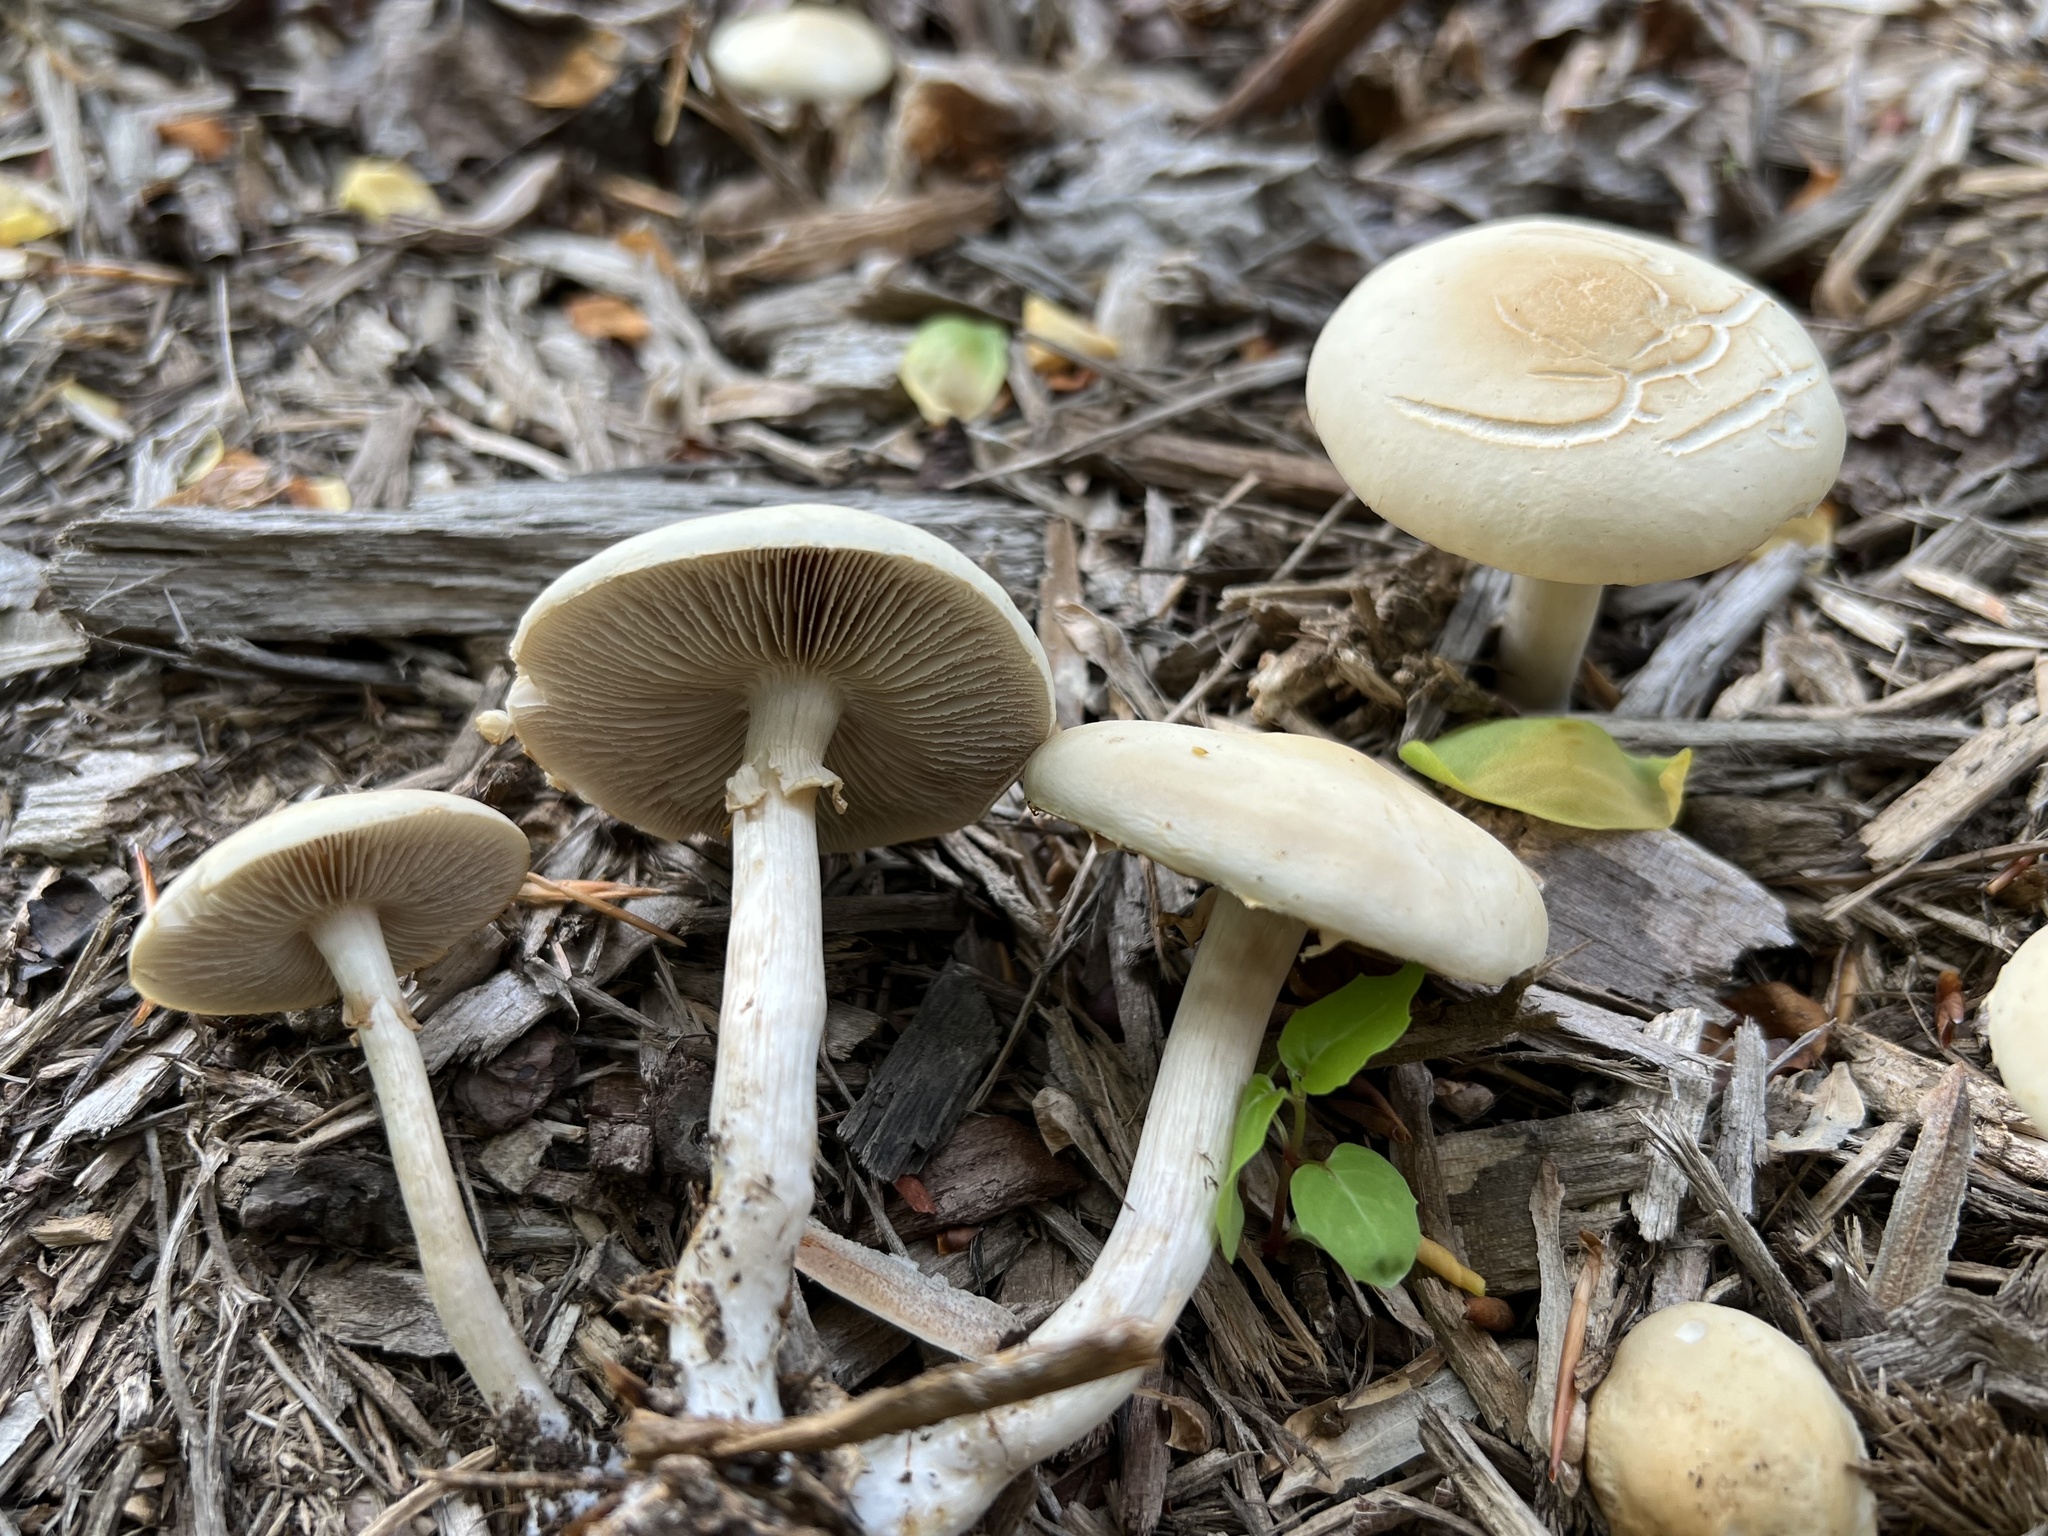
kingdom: Fungi
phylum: Basidiomycota
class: Agaricomycetes
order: Agaricales
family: Strophariaceae
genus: Agrocybe
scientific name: Agrocybe praecox
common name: Spring fieldcap
